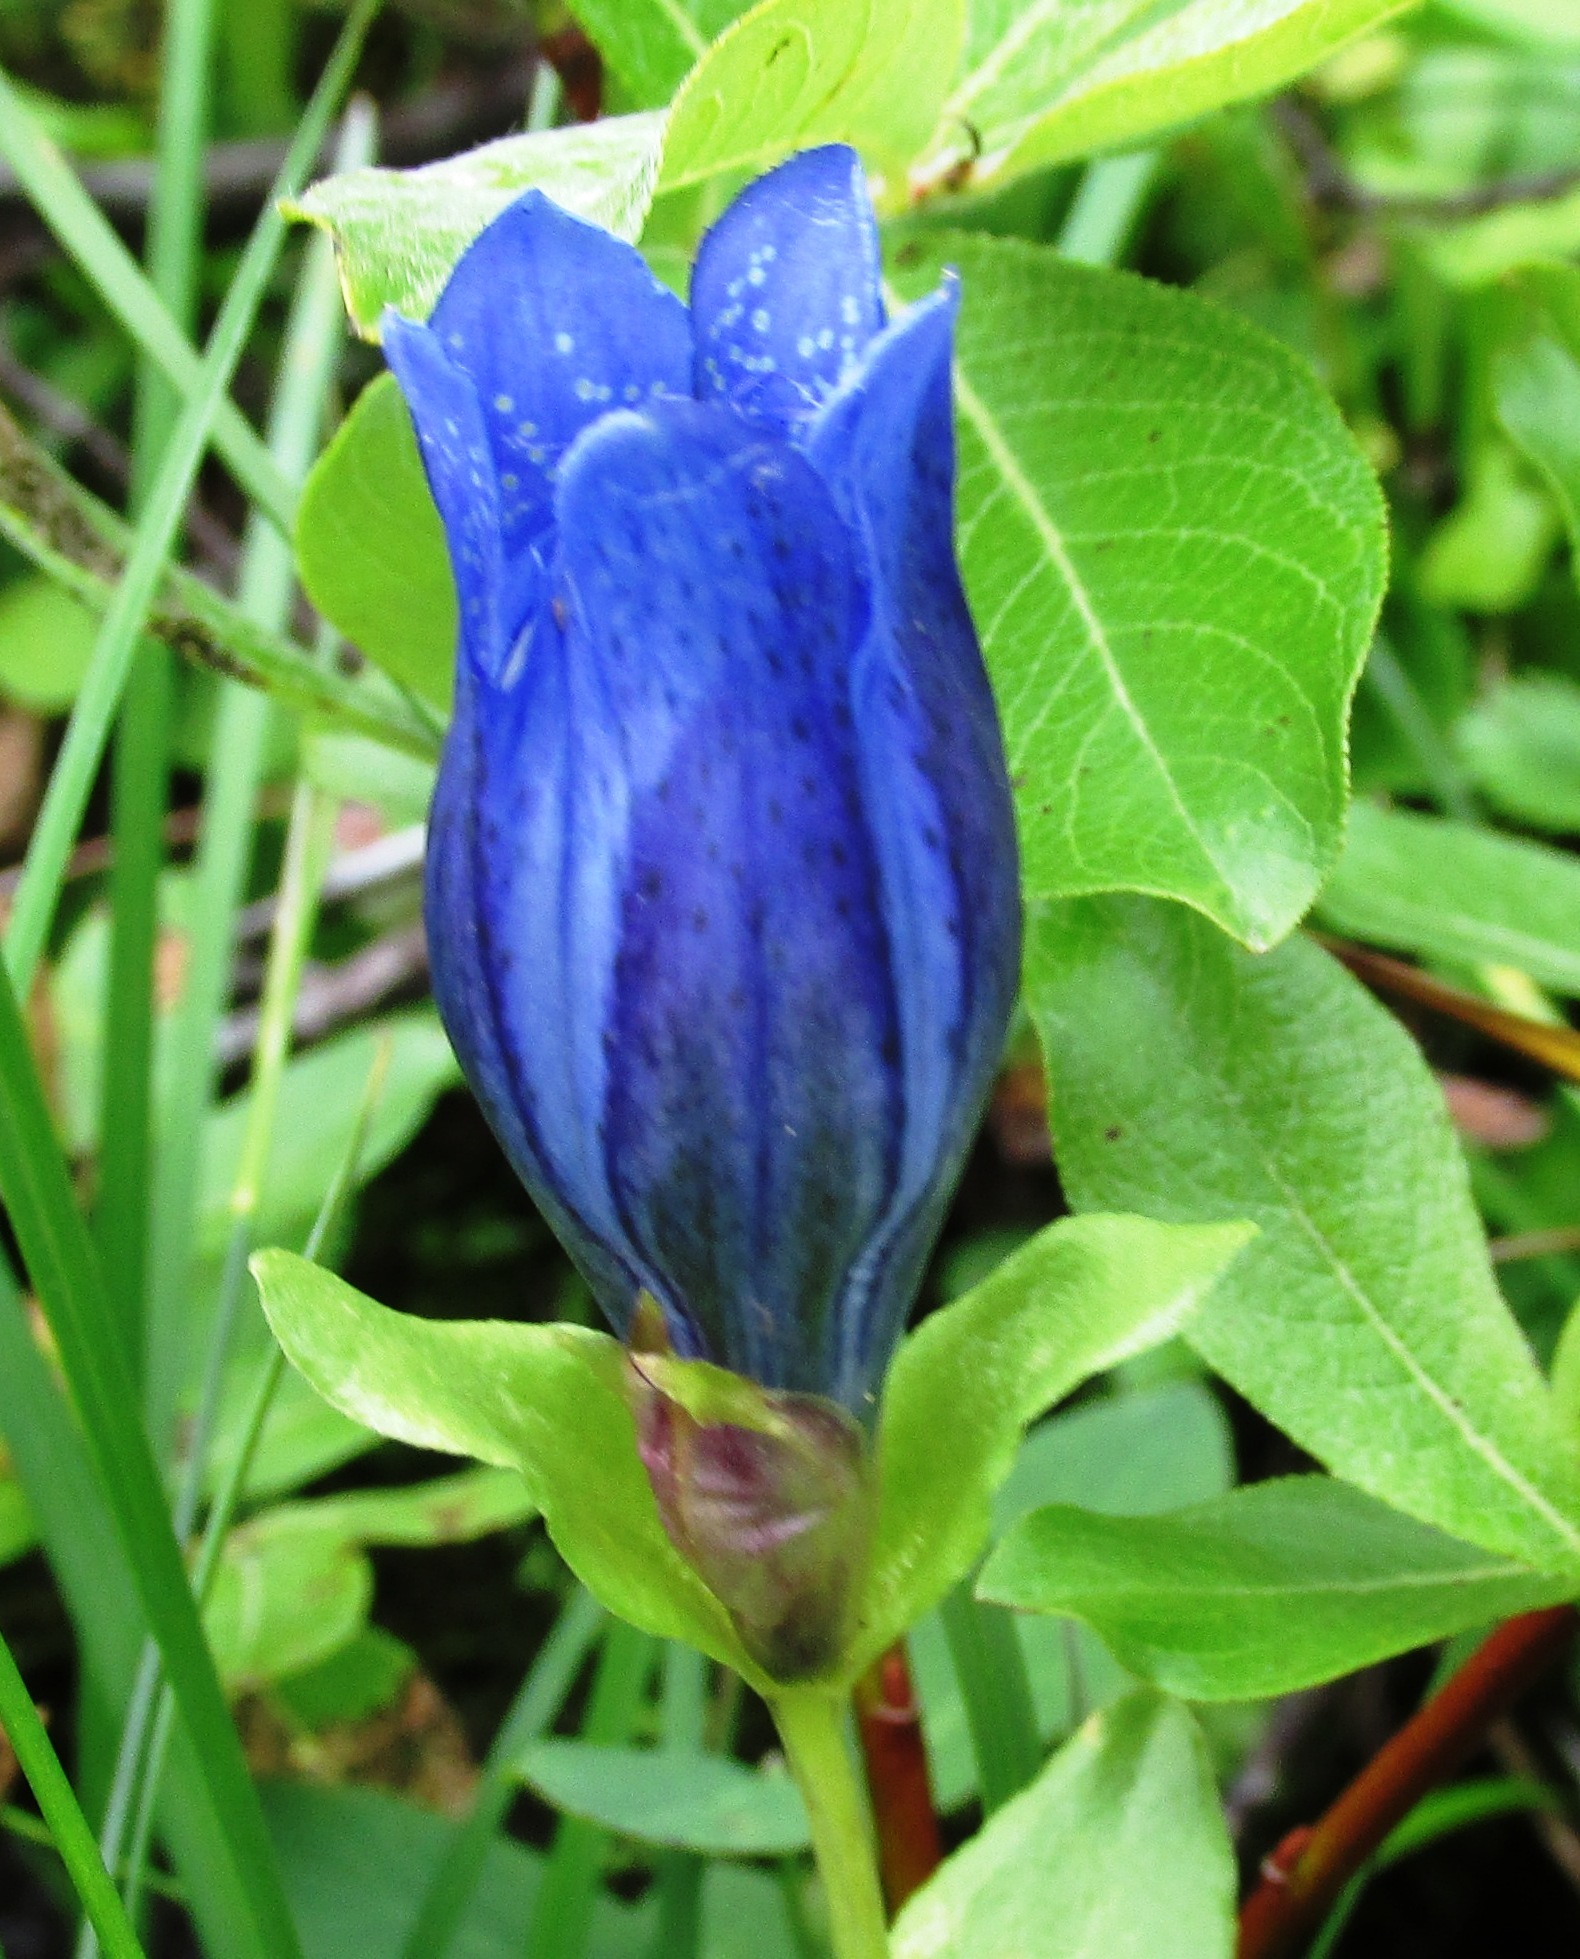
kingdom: Plantae
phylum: Tracheophyta
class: Magnoliopsida
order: Gentianales
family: Gentianaceae
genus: Gentiana
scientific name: Gentiana calycosa
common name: Rainier pleated gentian
